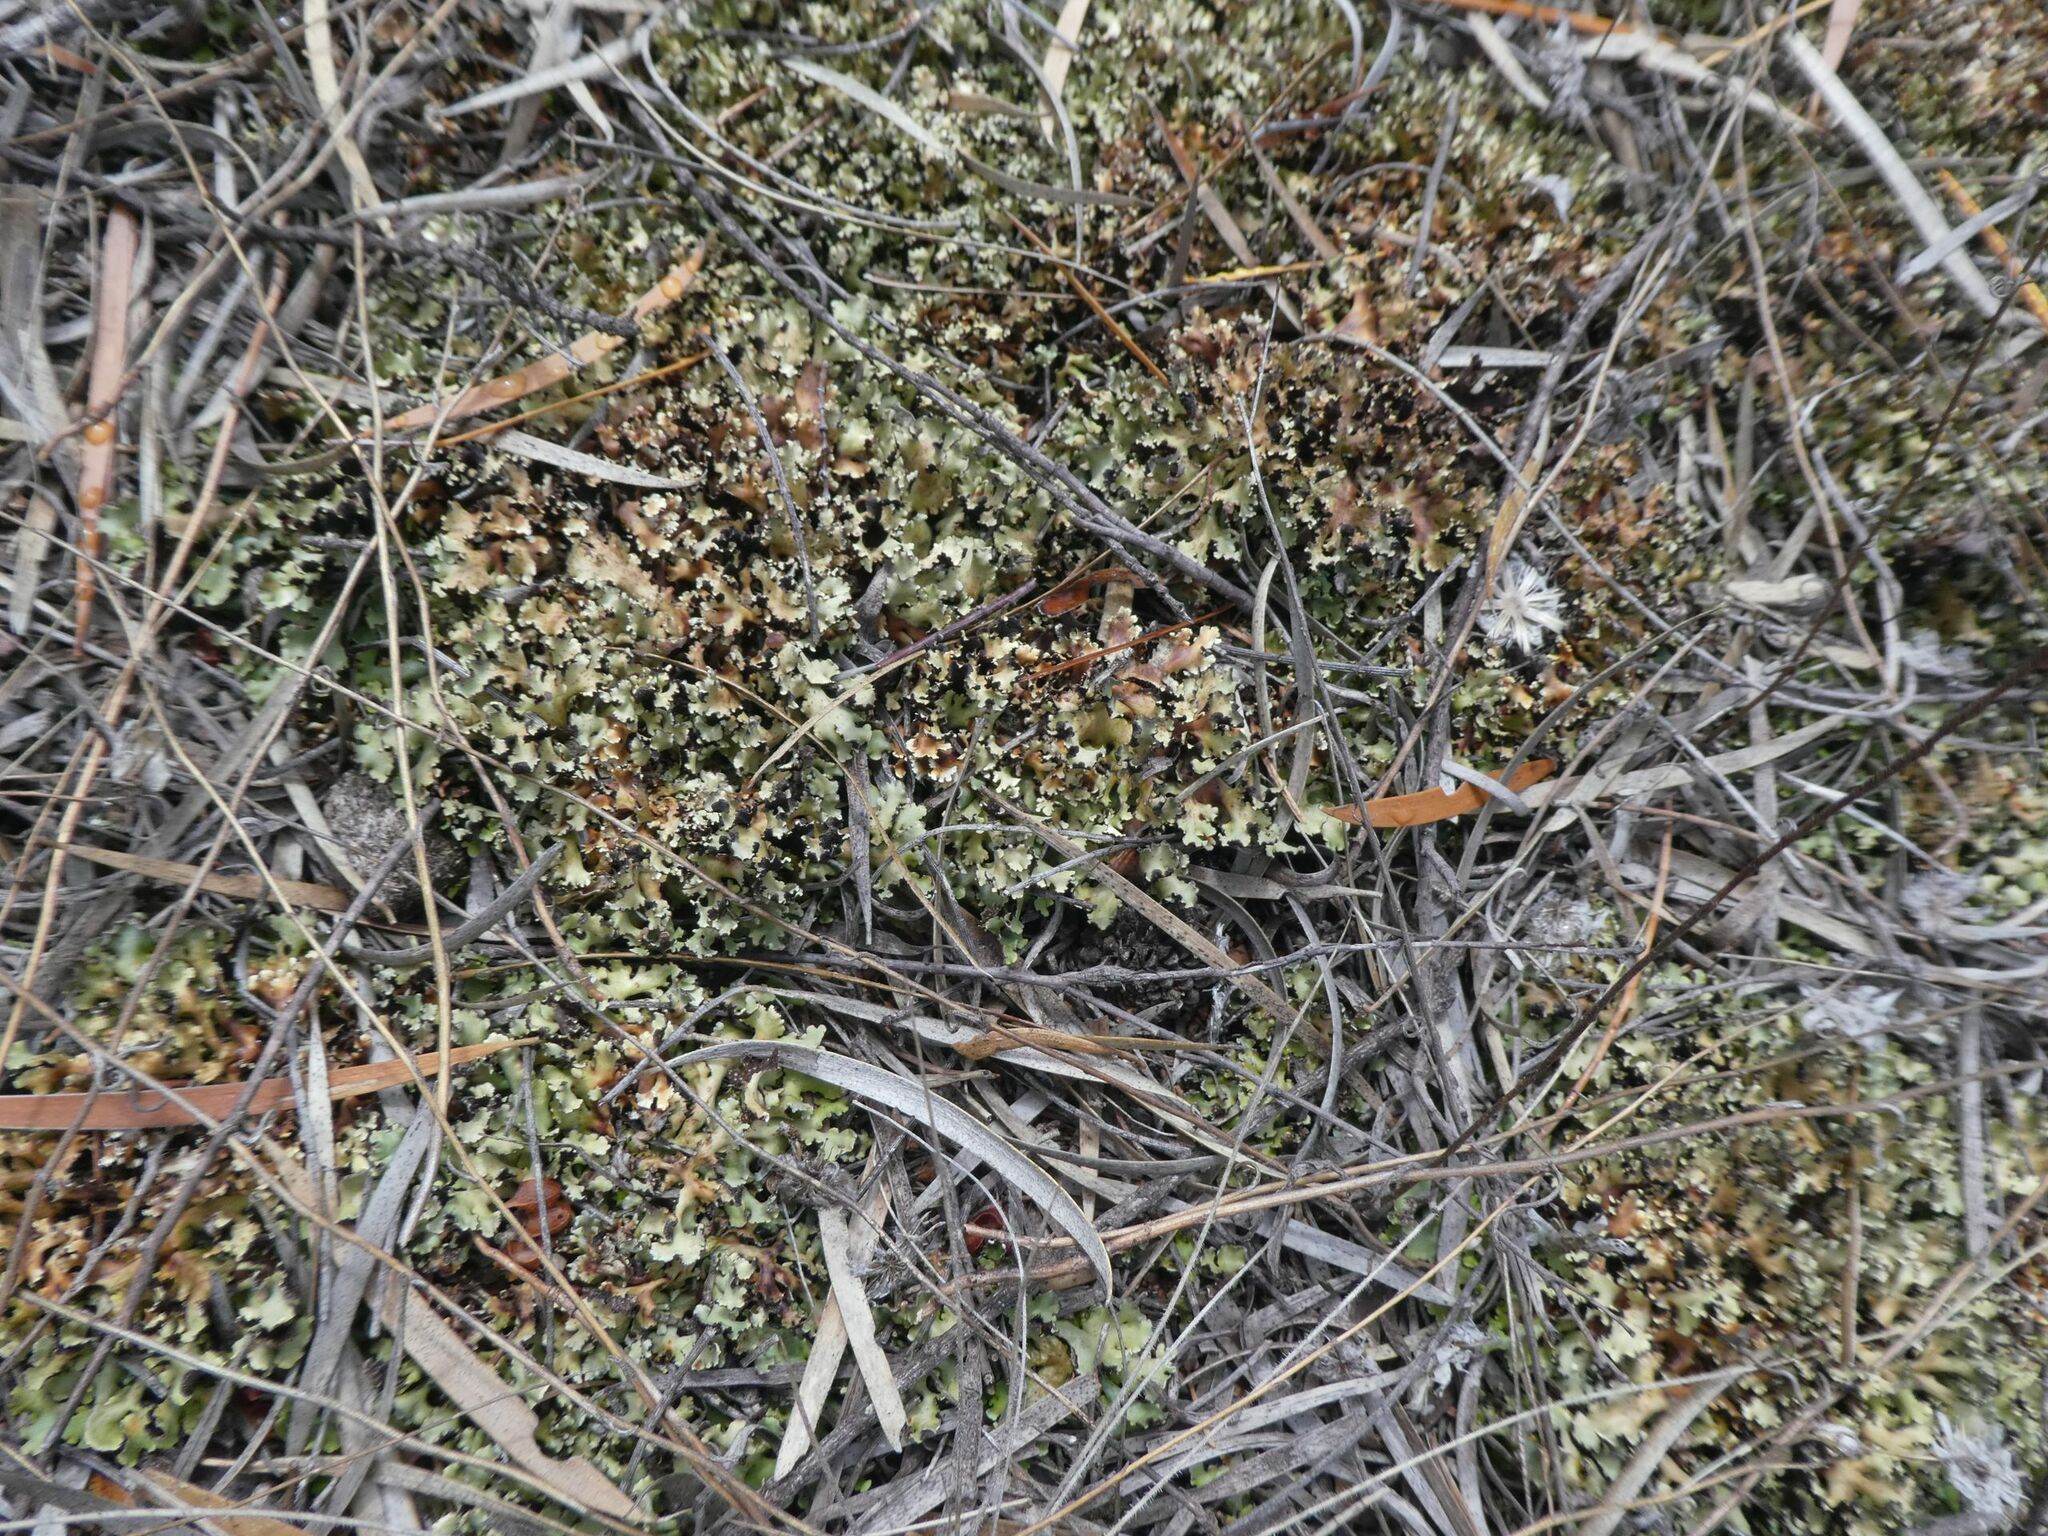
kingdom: Fungi
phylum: Ascomycota
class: Lecanoromycetes
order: Lecanorales
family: Cladoniaceae
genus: Cladia
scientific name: Cladia muelleri
